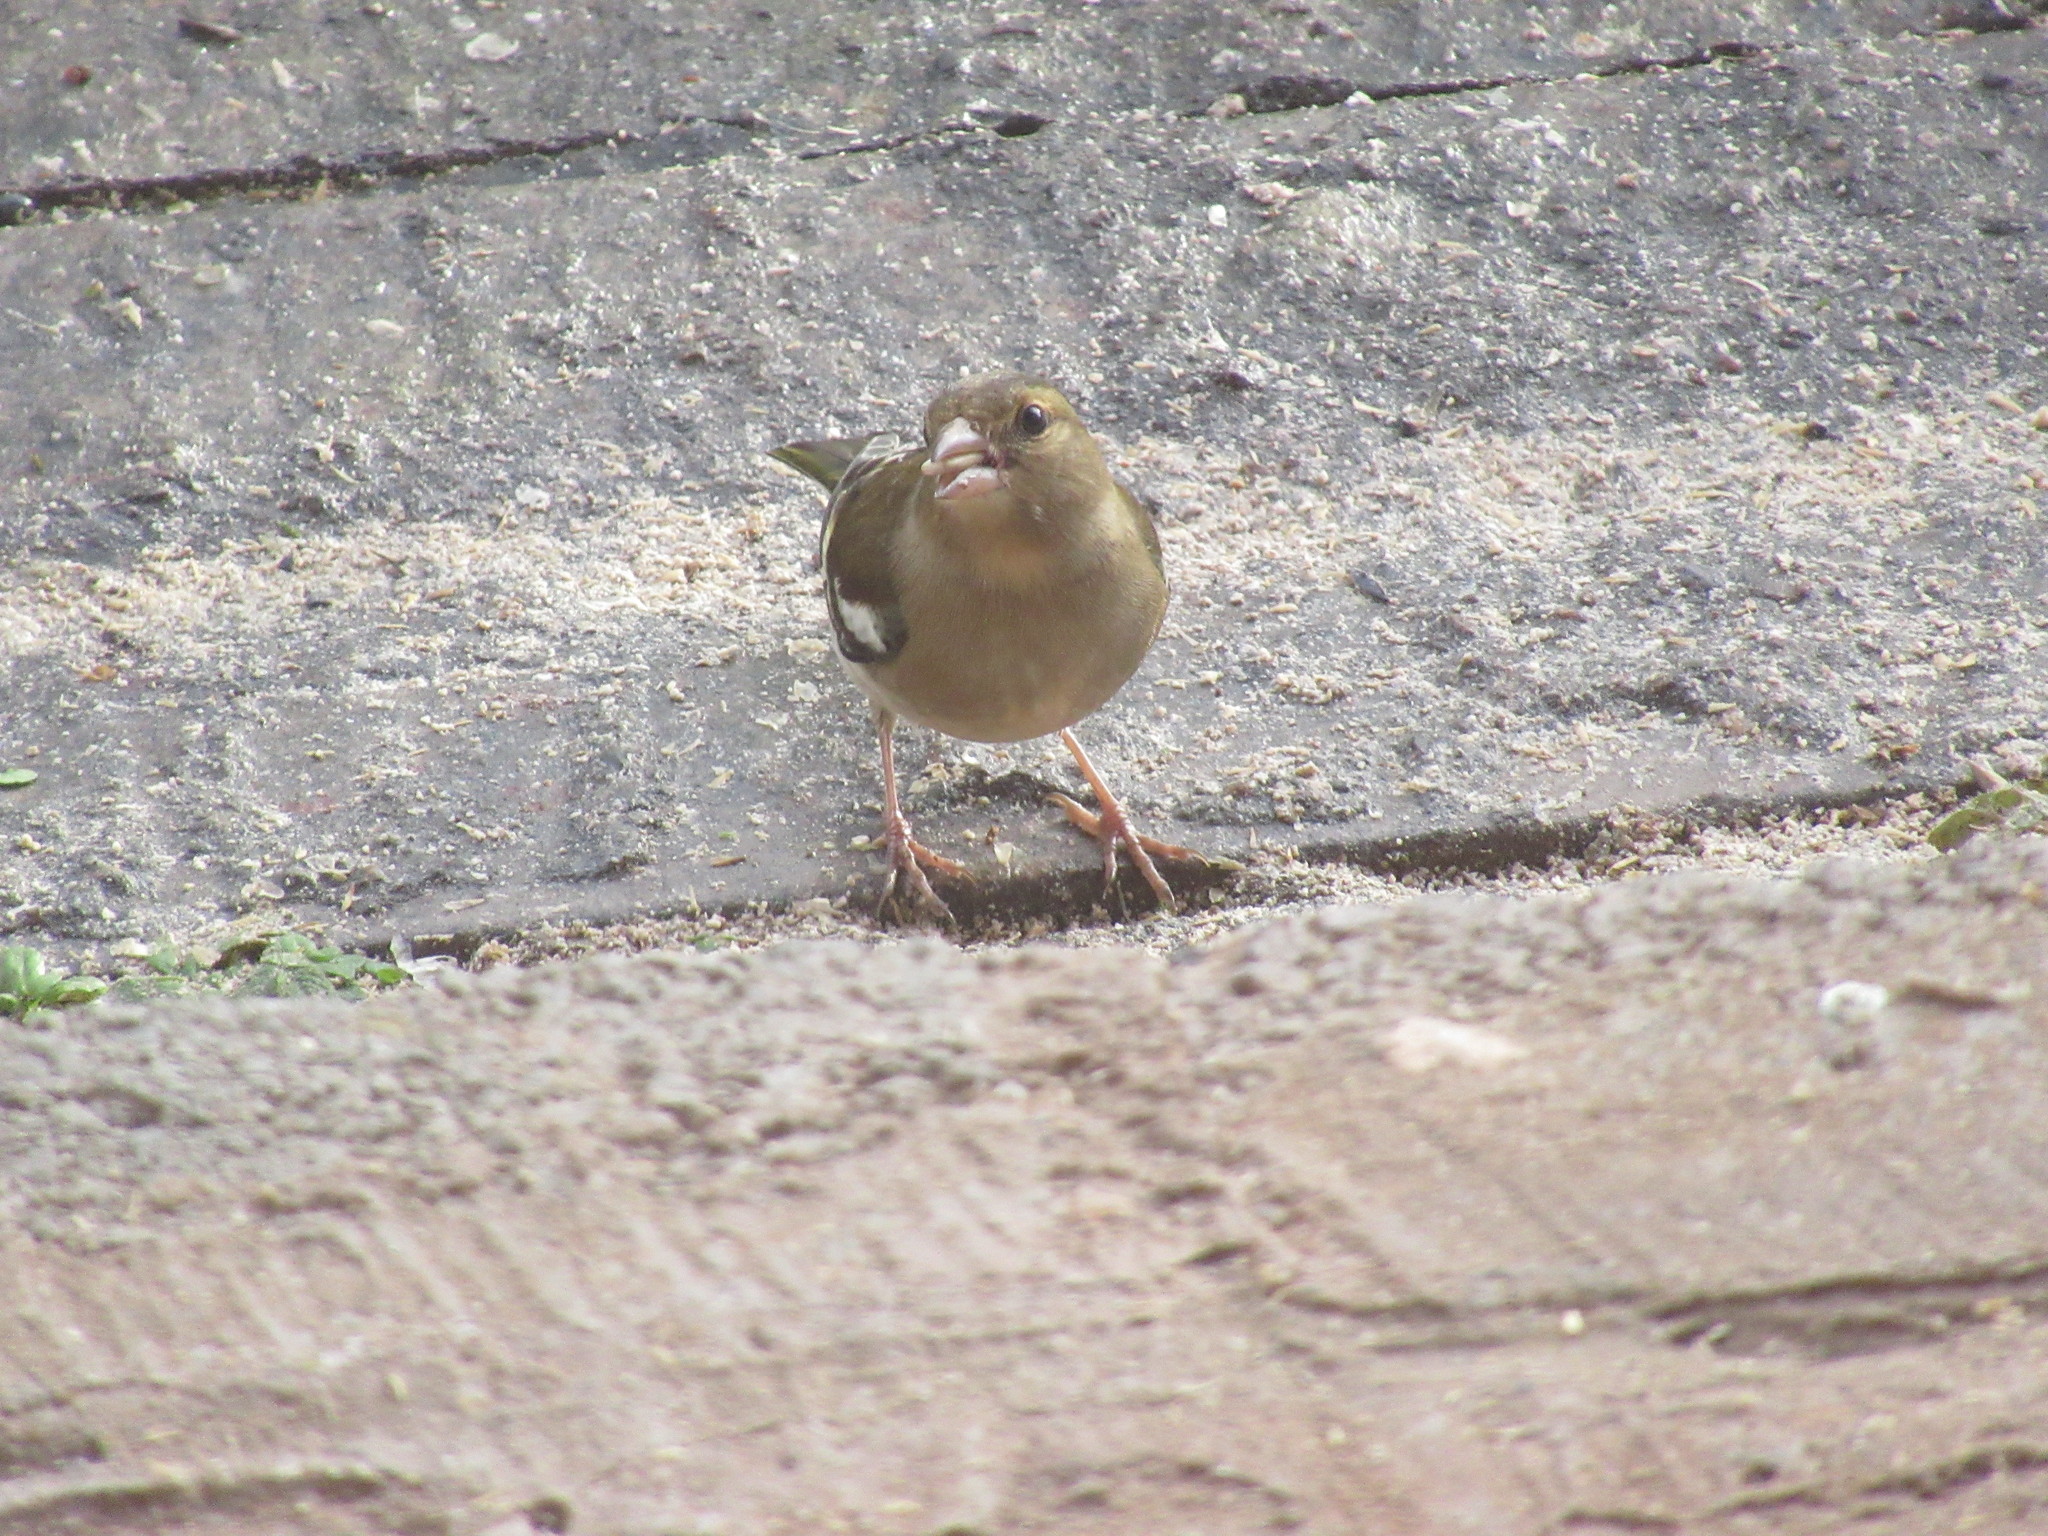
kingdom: Animalia
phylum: Chordata
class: Aves
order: Passeriformes
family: Fringillidae
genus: Fringilla
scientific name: Fringilla coelebs
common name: Common chaffinch
